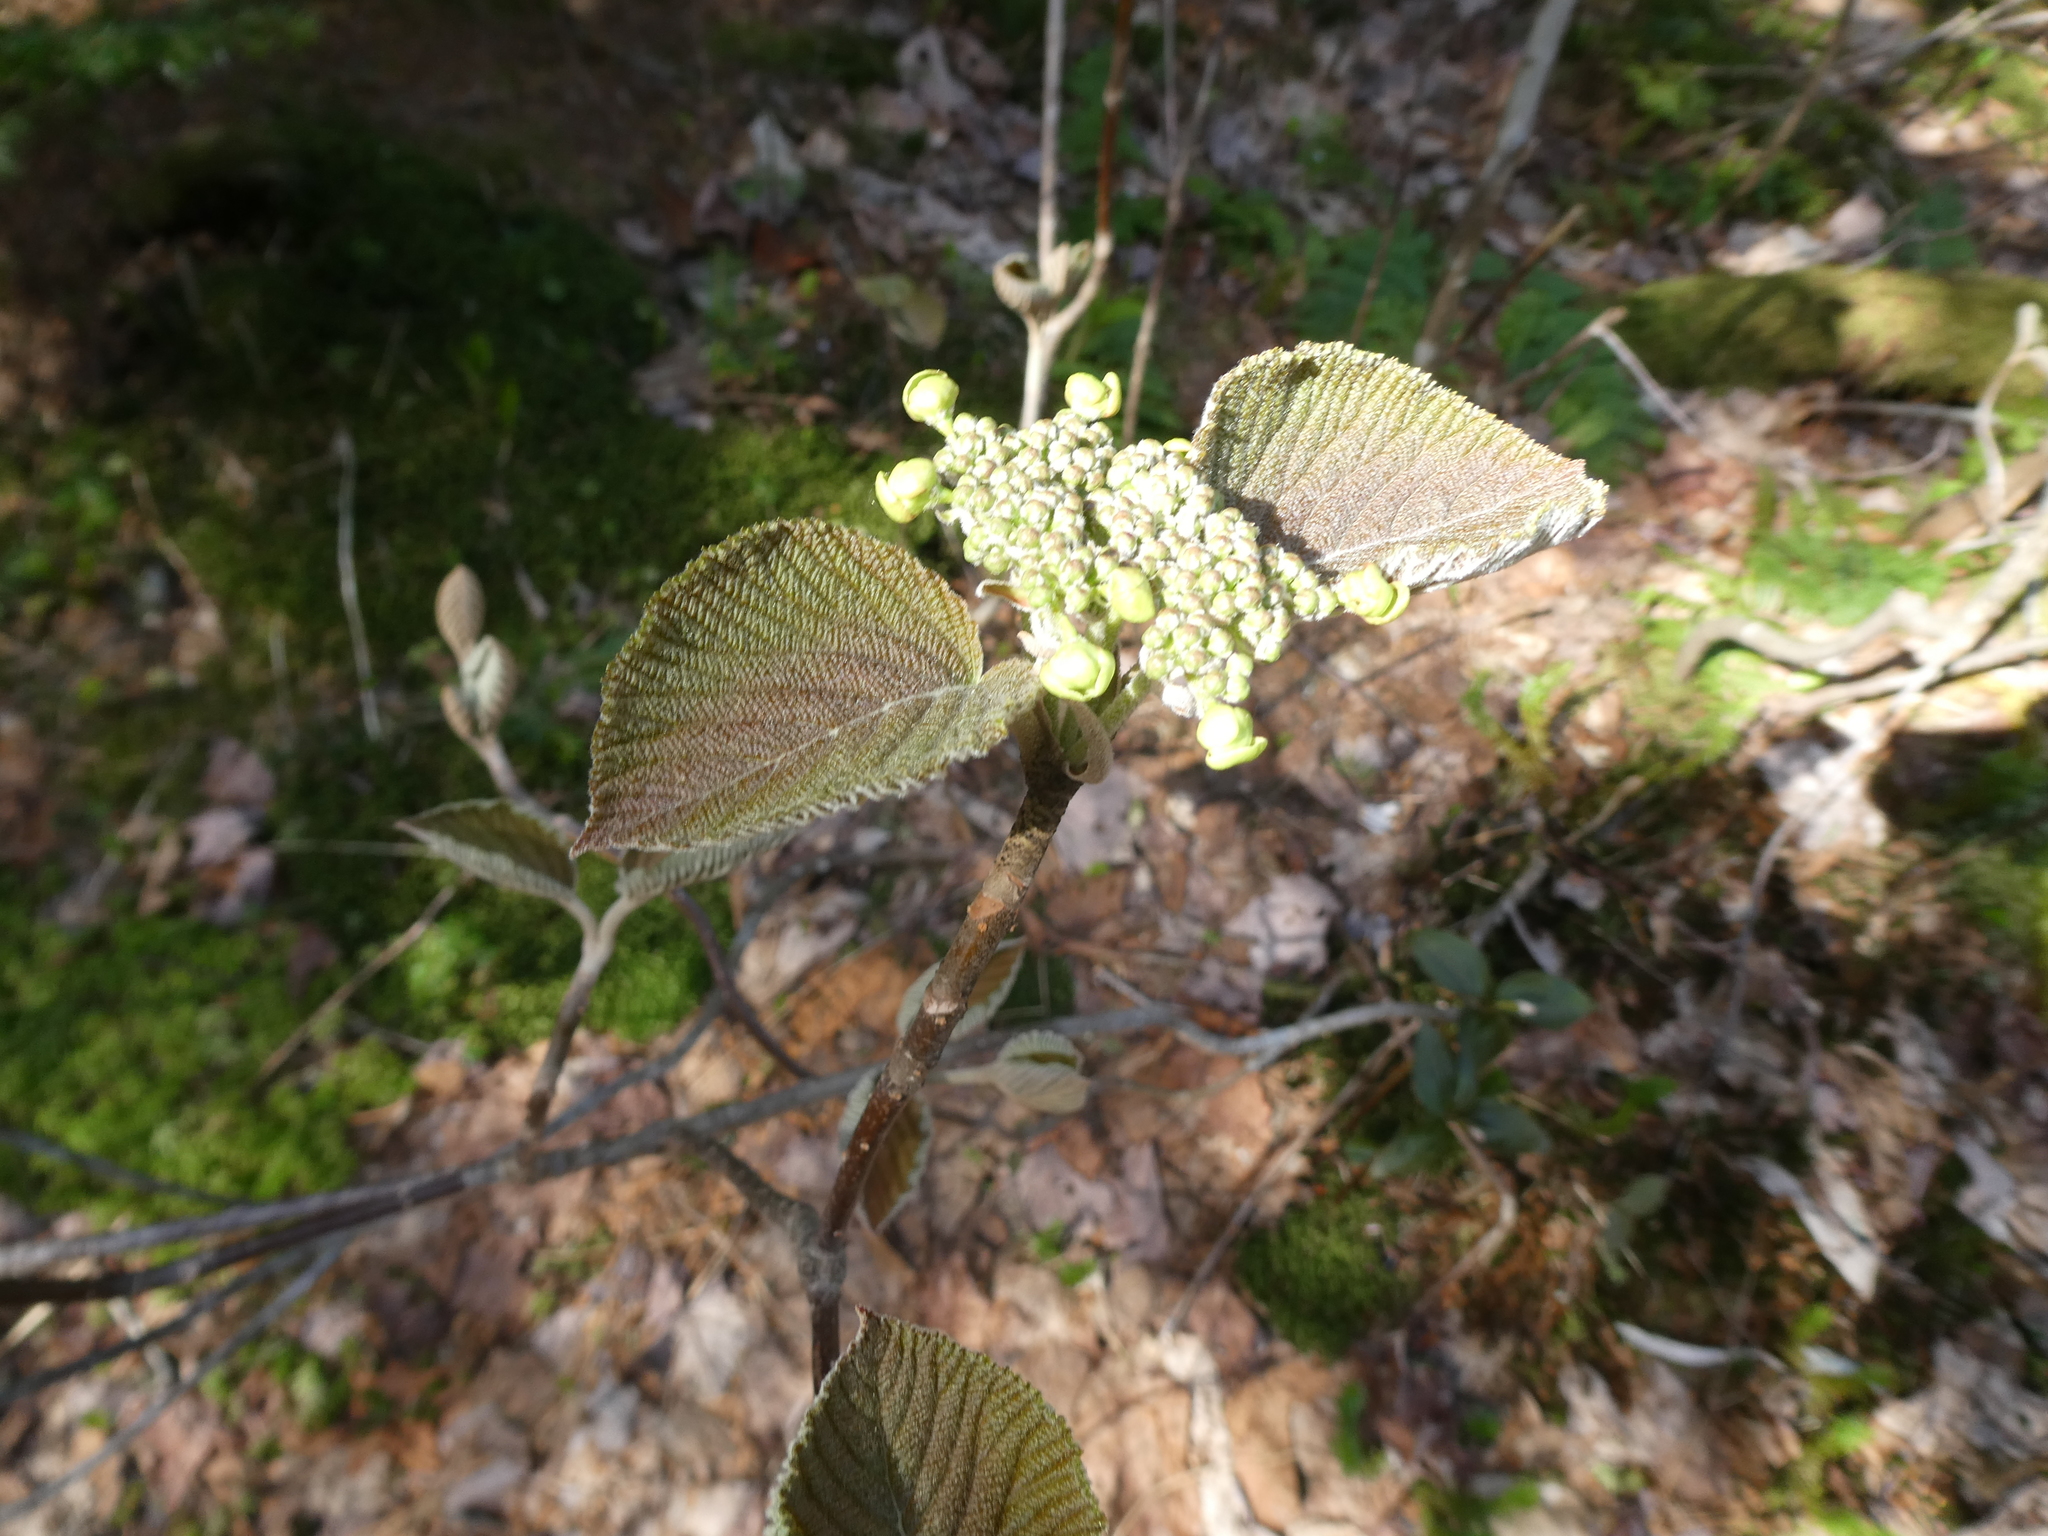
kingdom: Plantae
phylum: Tracheophyta
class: Magnoliopsida
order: Dipsacales
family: Viburnaceae
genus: Viburnum
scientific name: Viburnum lantanoides
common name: Hobblebush
